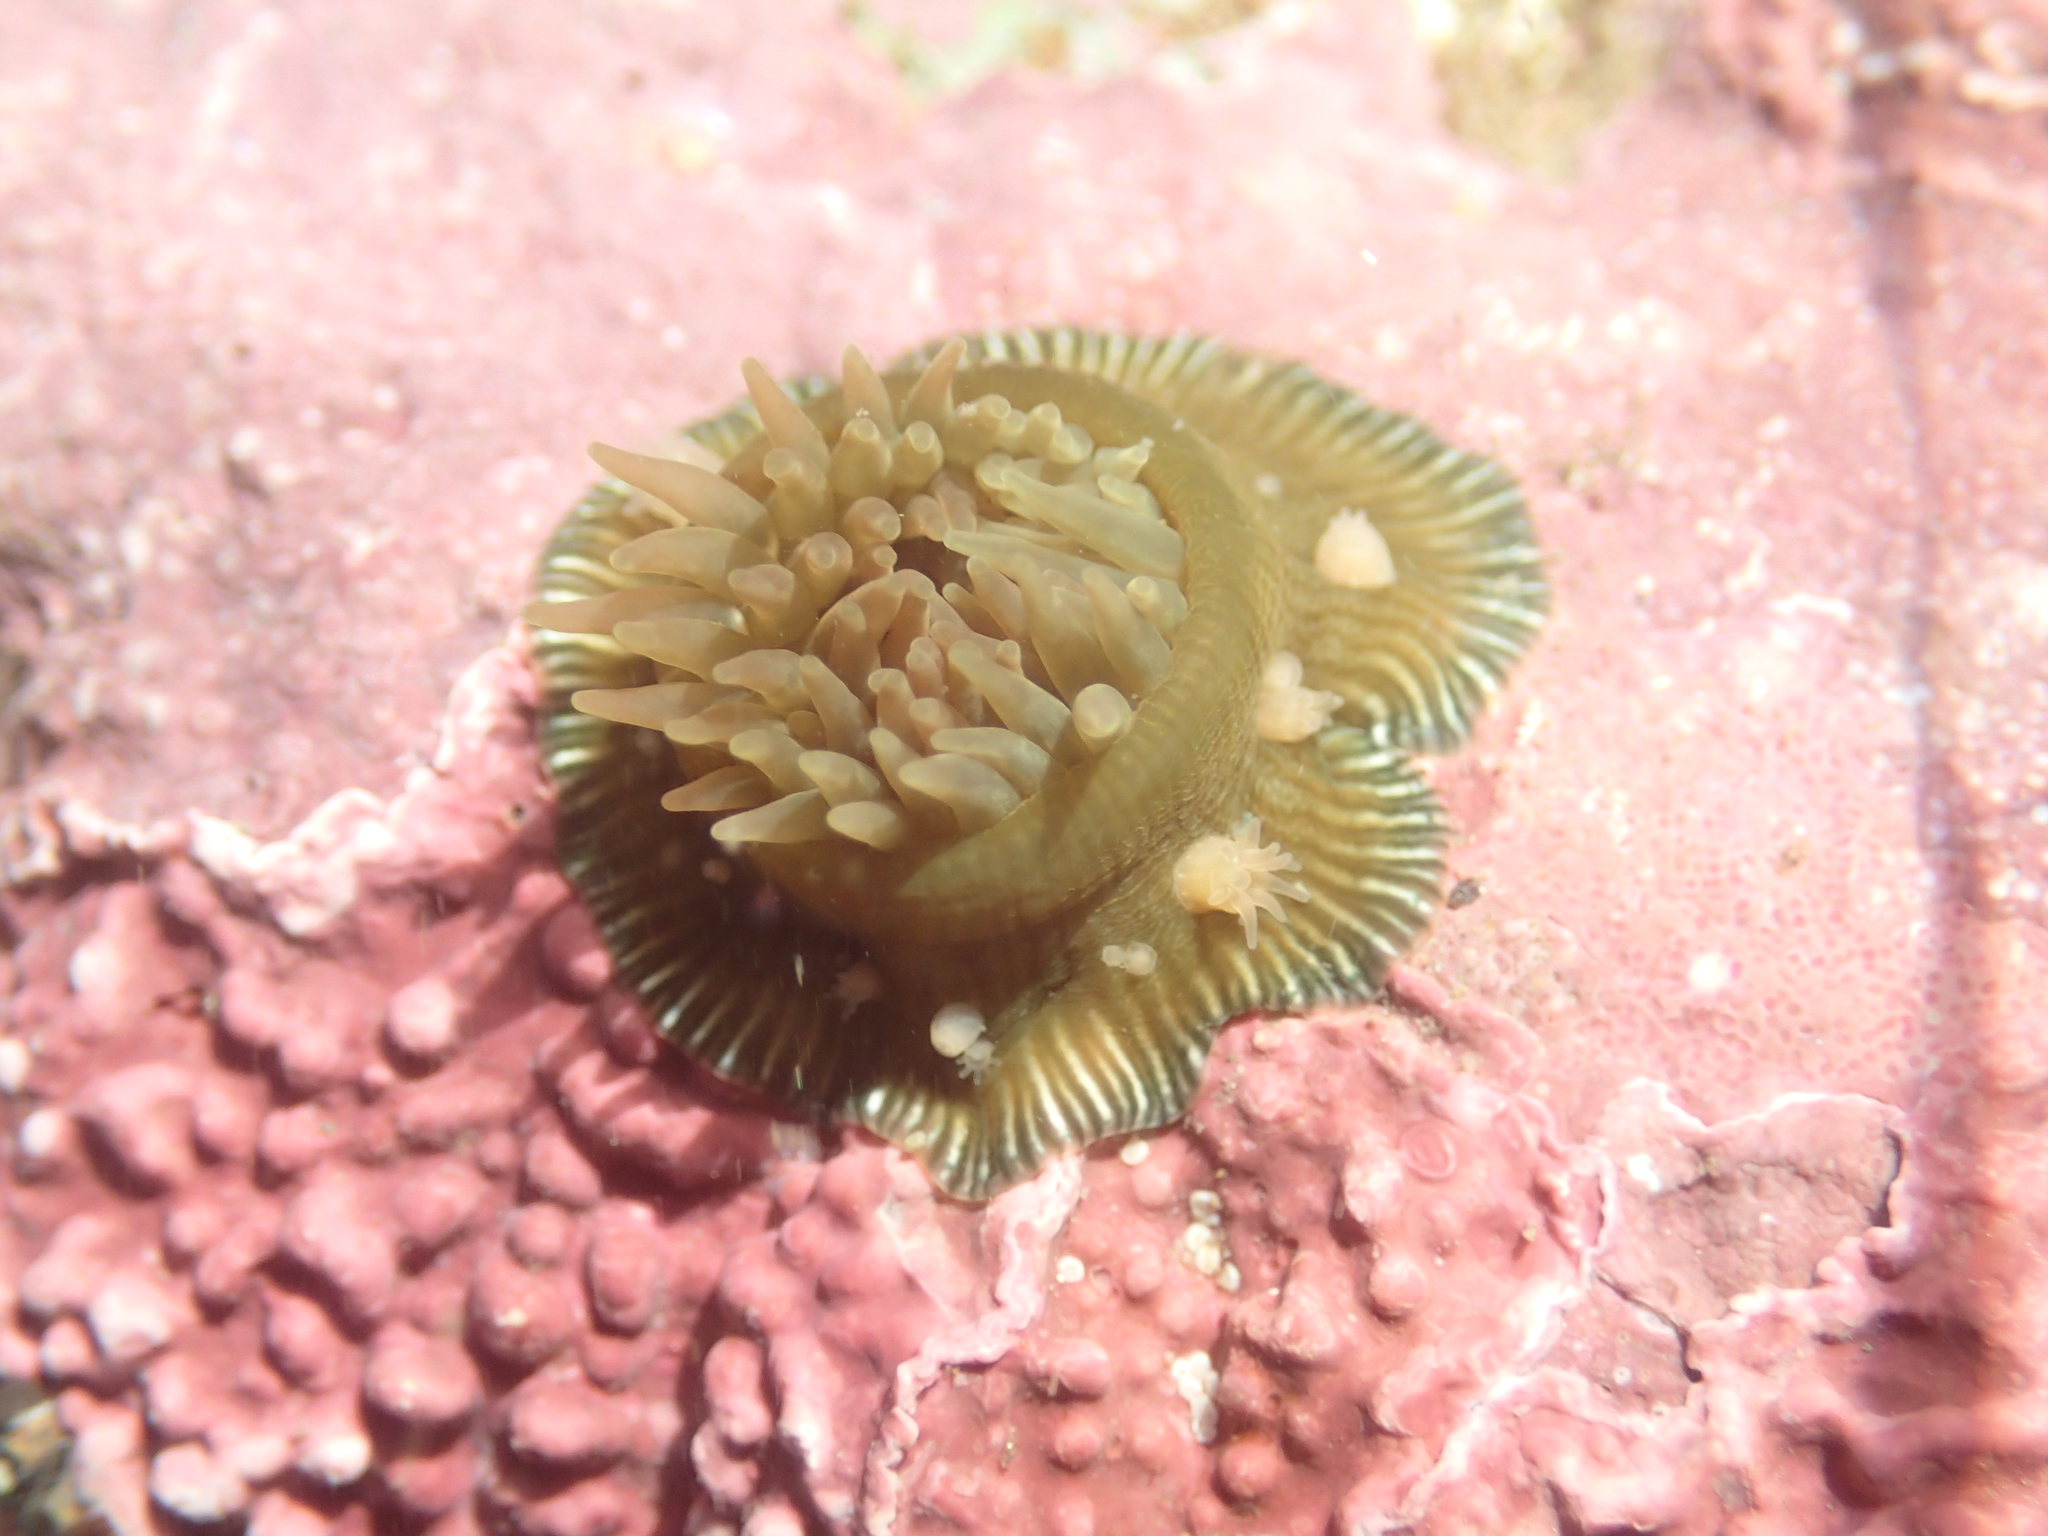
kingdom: Animalia
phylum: Cnidaria
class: Anthozoa
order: Actiniaria
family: Actiniidae
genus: Epiactis
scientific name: Epiactis prolifera
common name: Brooding anemone
